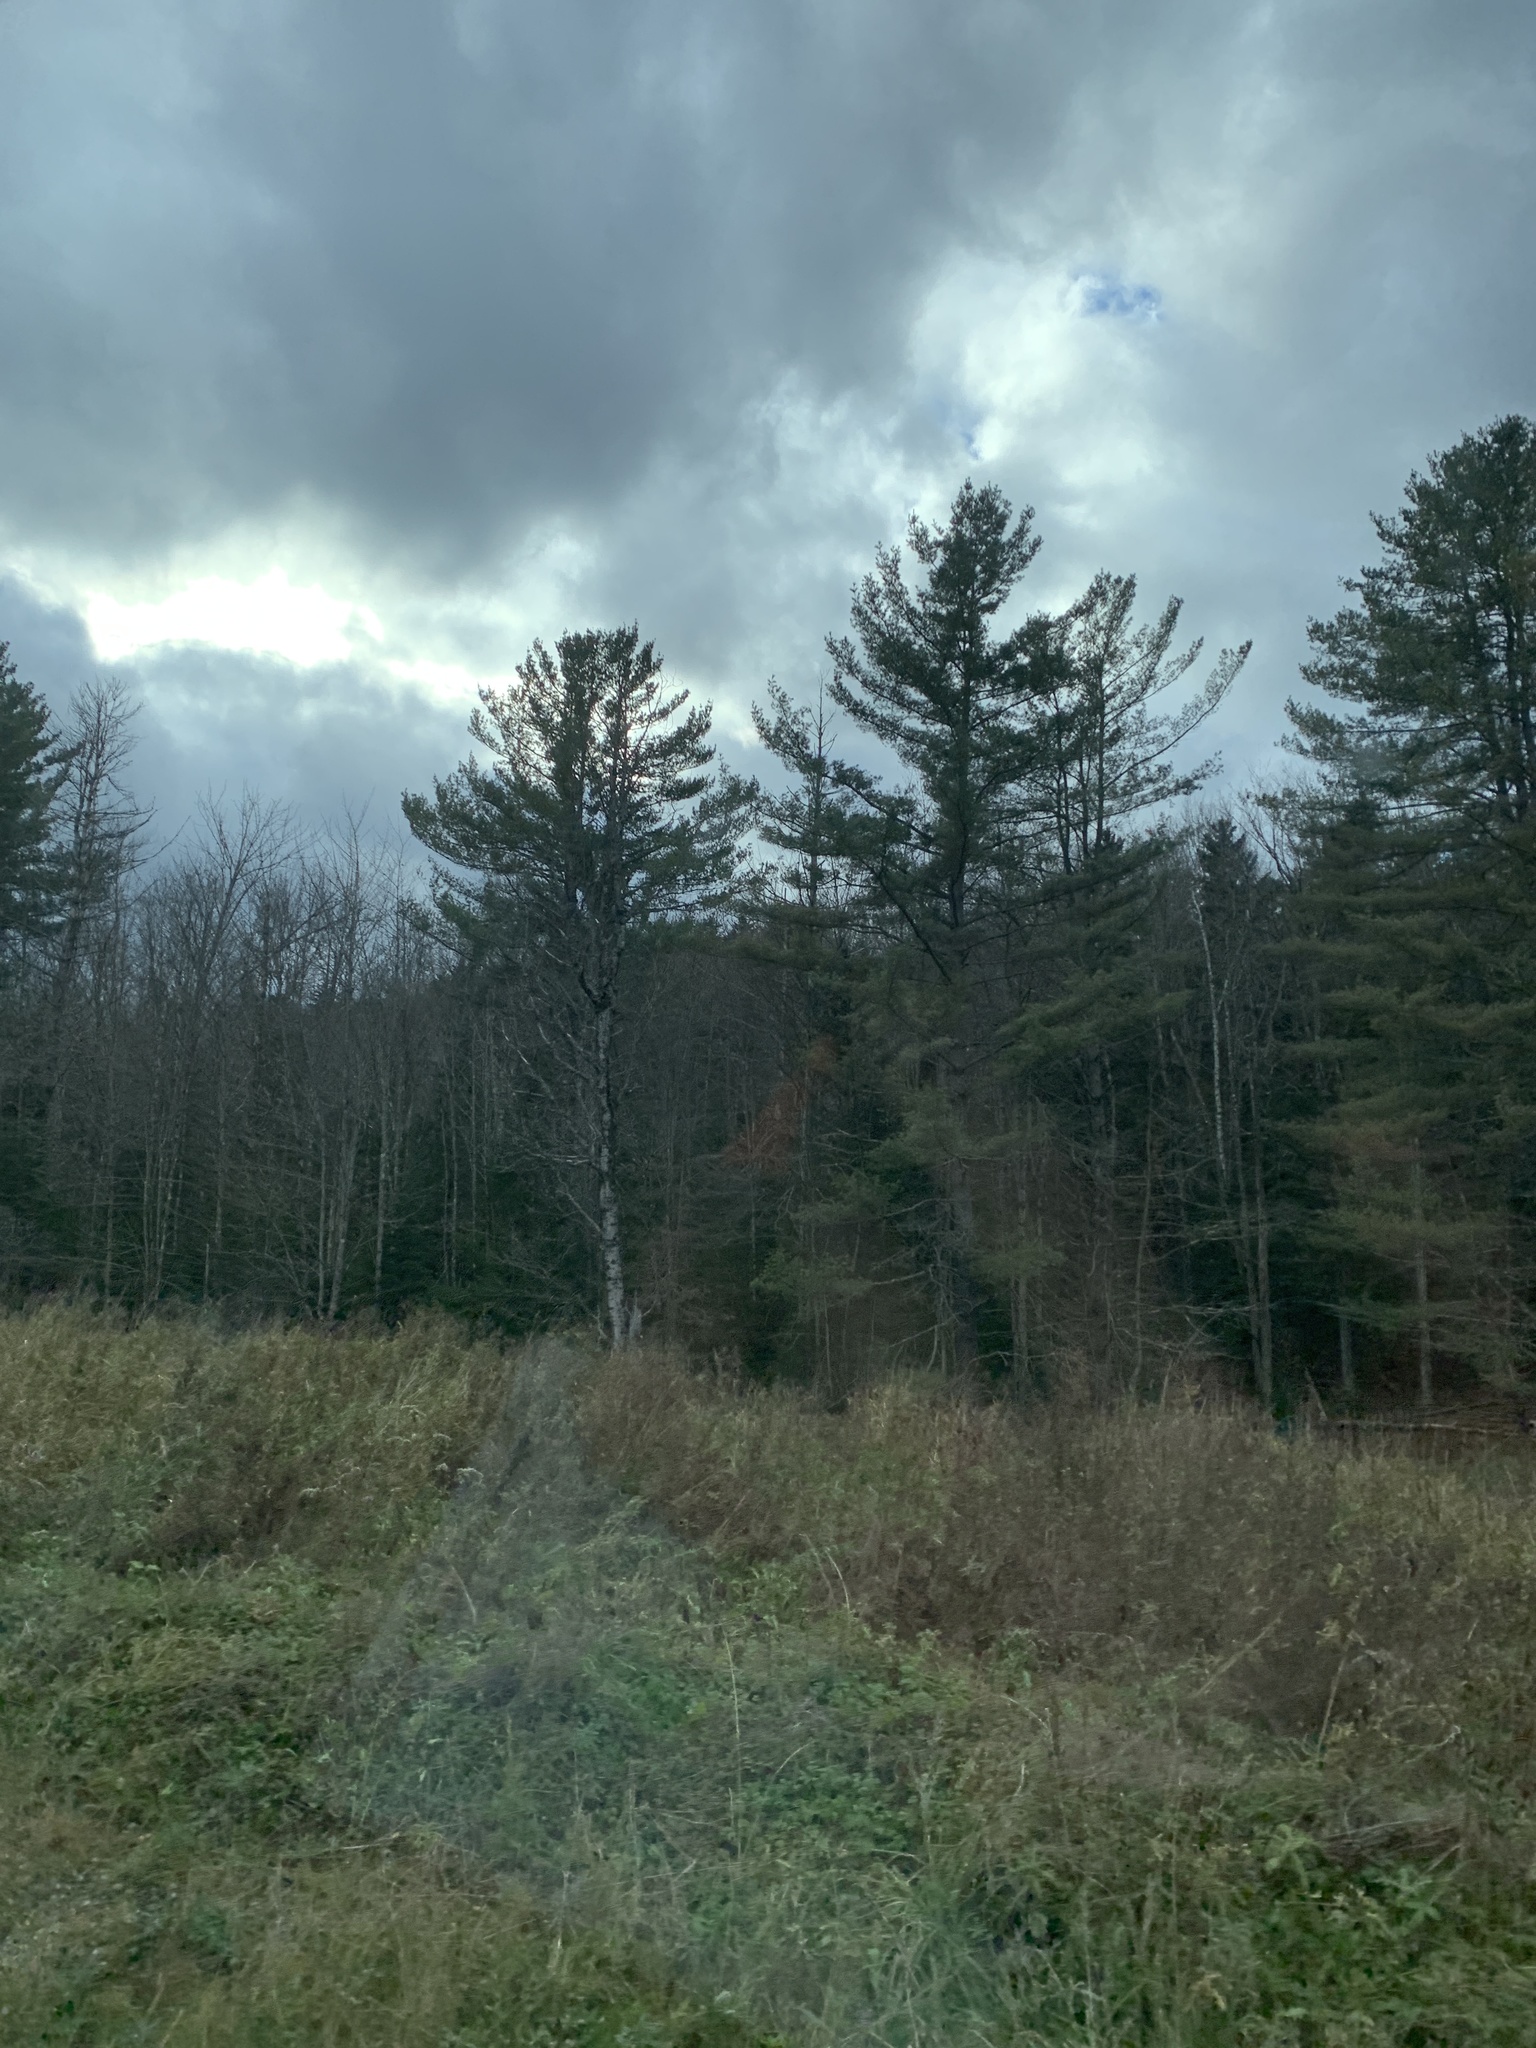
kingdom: Plantae
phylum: Tracheophyta
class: Pinopsida
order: Pinales
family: Pinaceae
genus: Pinus
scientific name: Pinus strobus
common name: Weymouth pine
